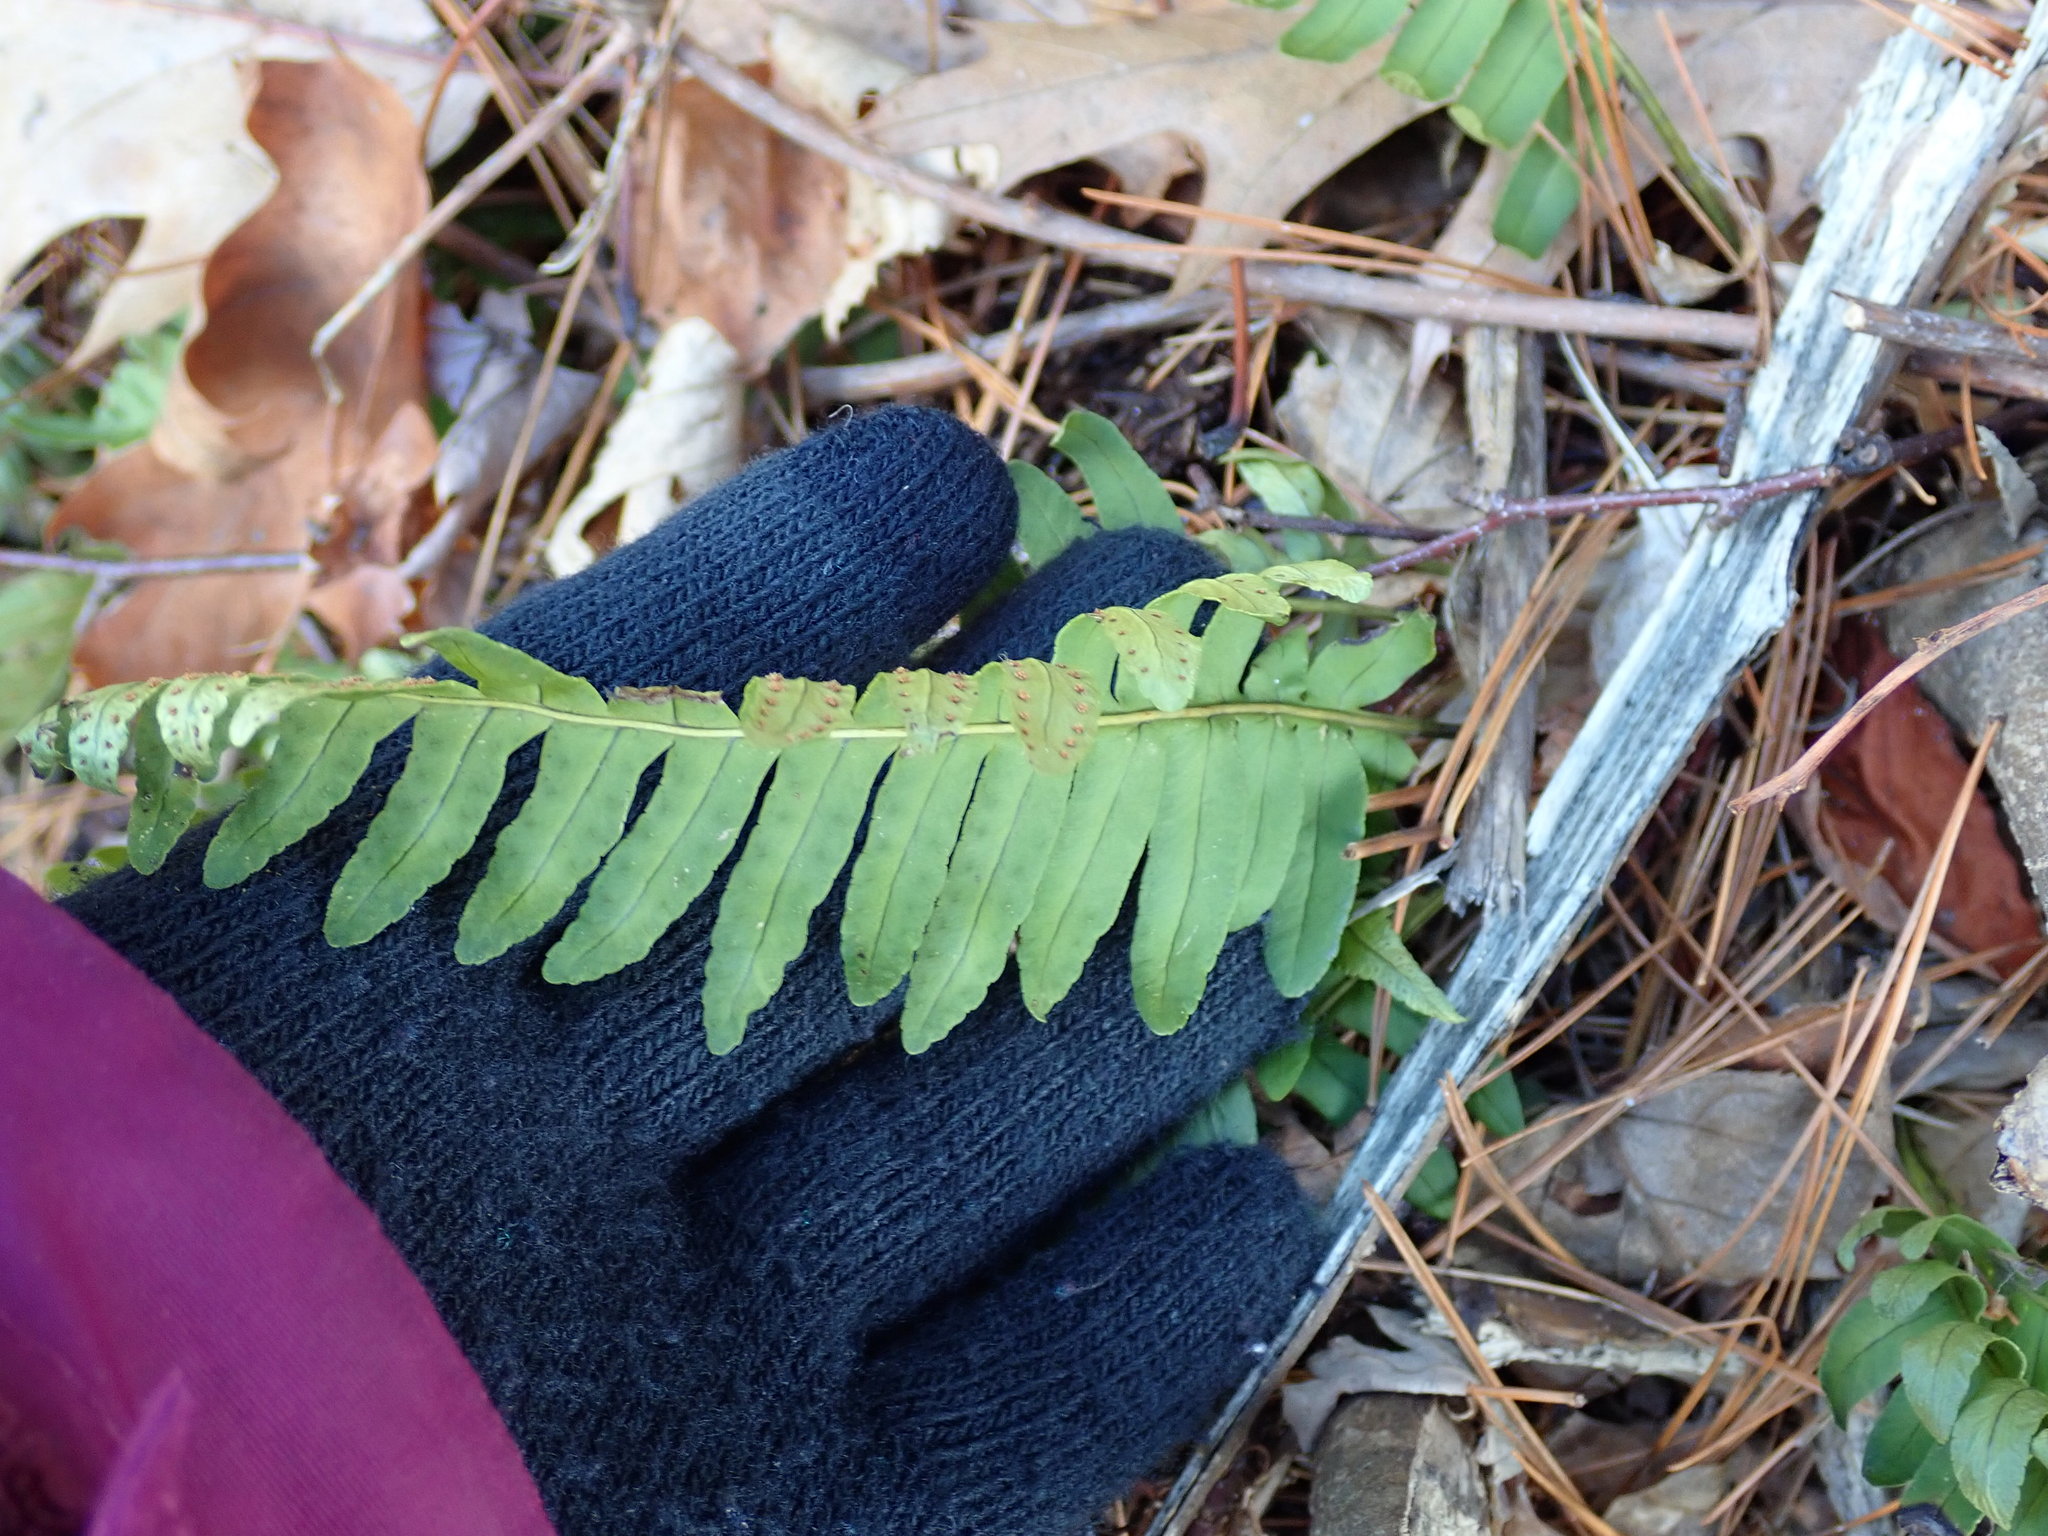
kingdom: Plantae
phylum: Tracheophyta
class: Polypodiopsida
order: Polypodiales
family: Polypodiaceae
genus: Polypodium
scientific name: Polypodium
